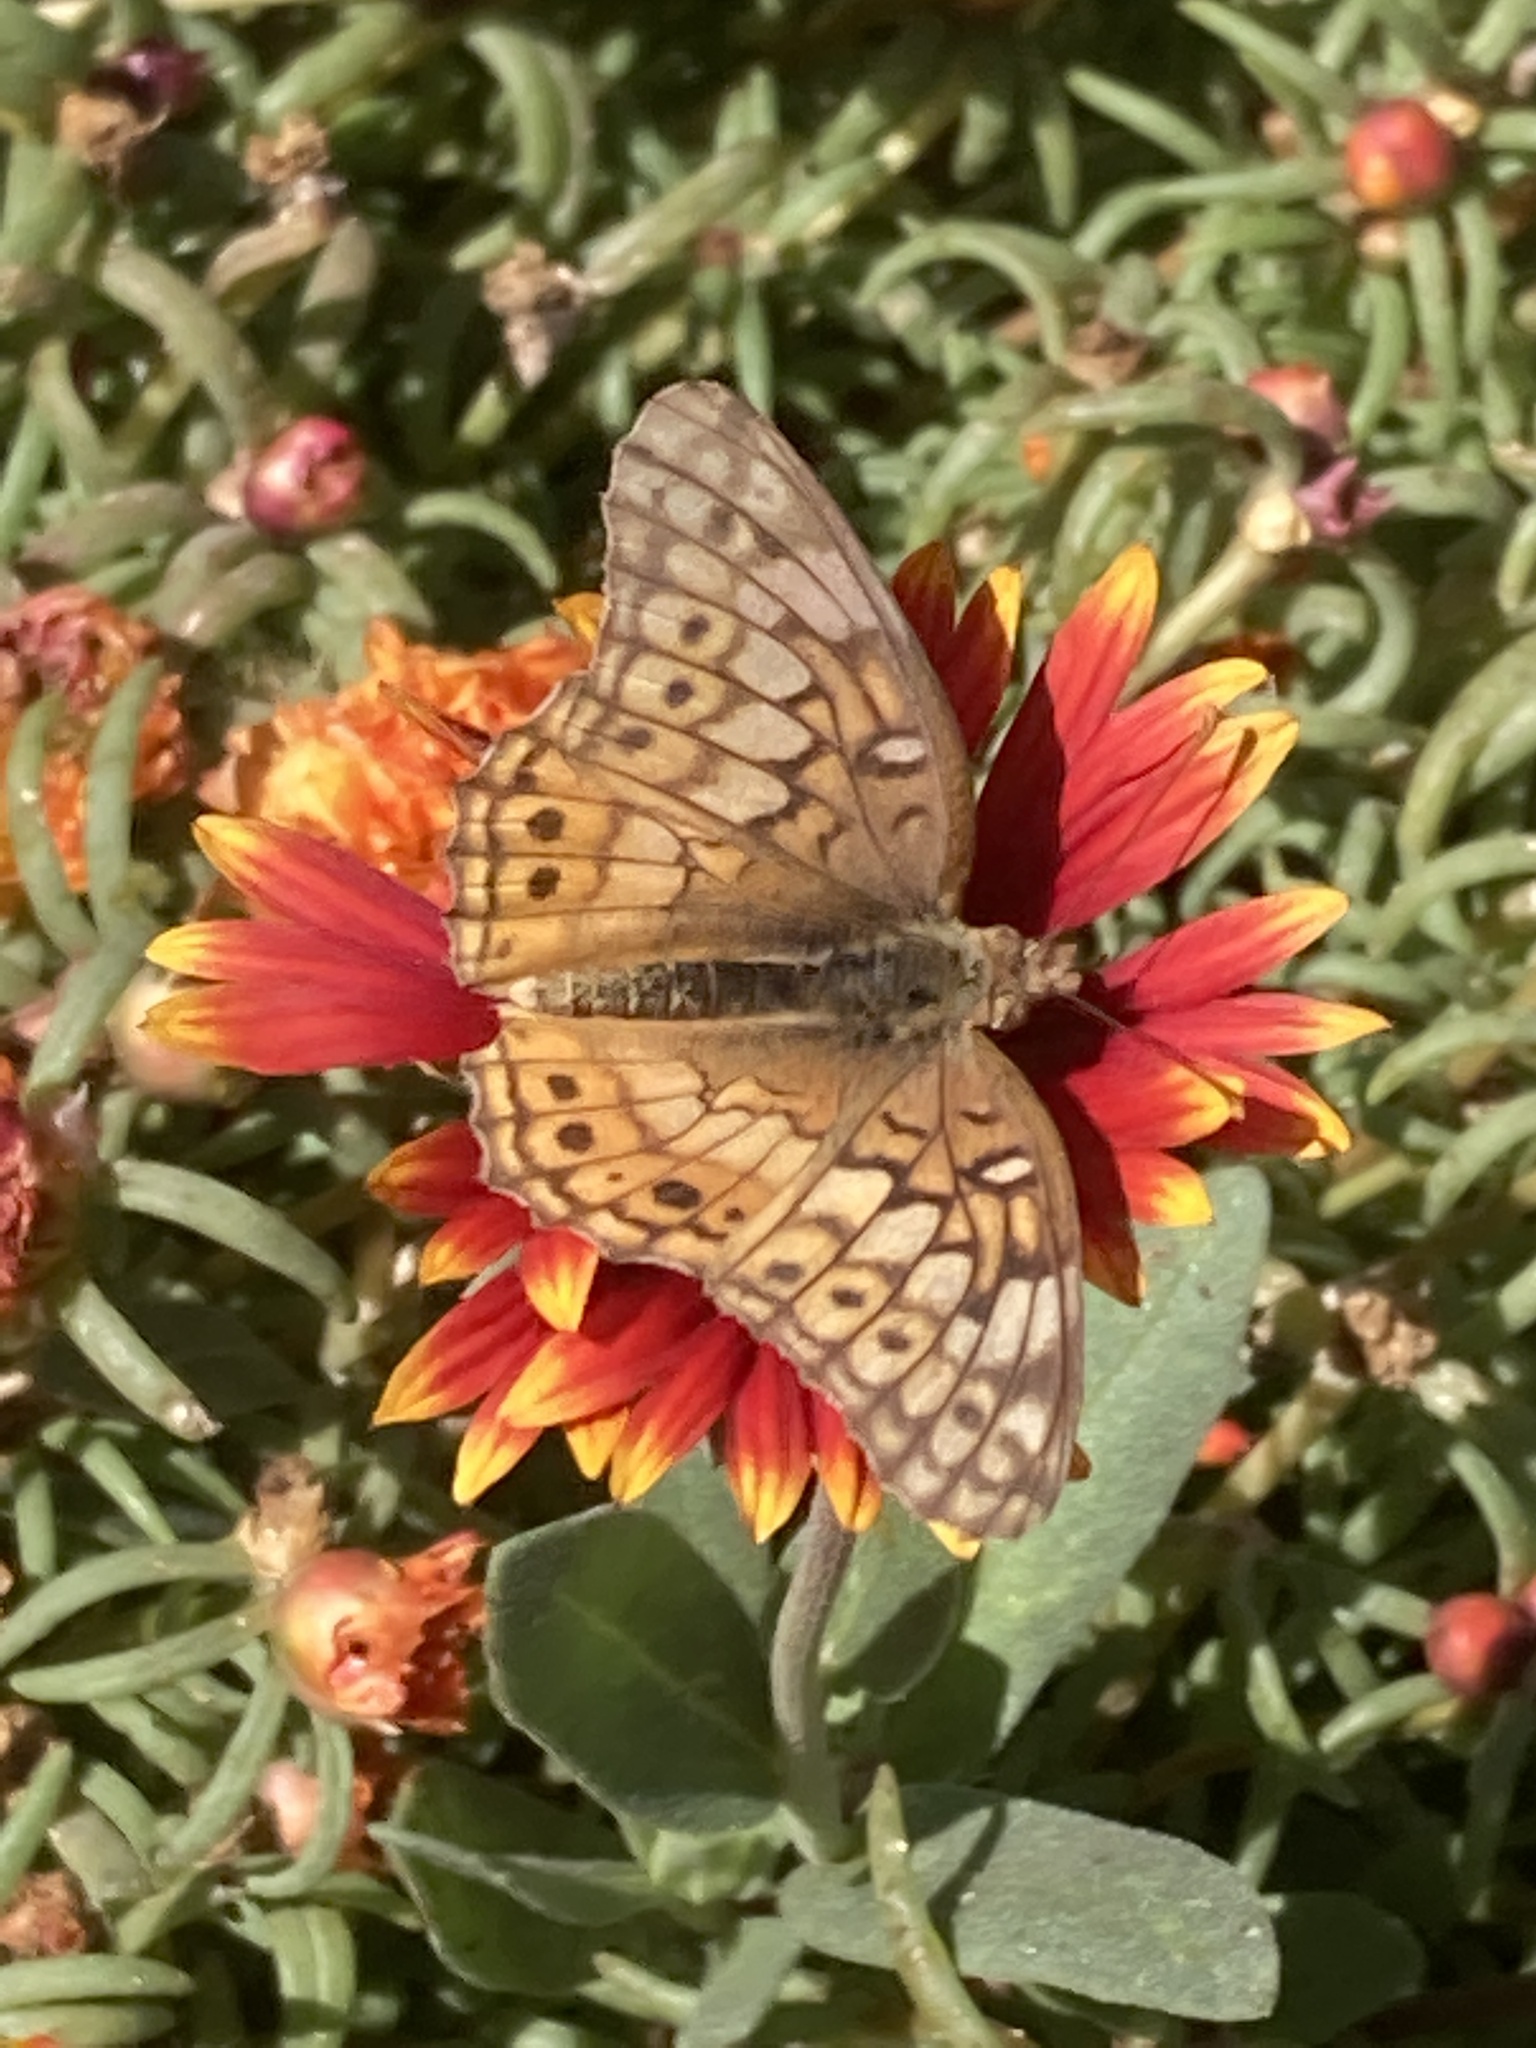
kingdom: Animalia
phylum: Arthropoda
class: Insecta
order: Lepidoptera
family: Nymphalidae
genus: Euptoieta
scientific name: Euptoieta claudia
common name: Variegated fritillary
